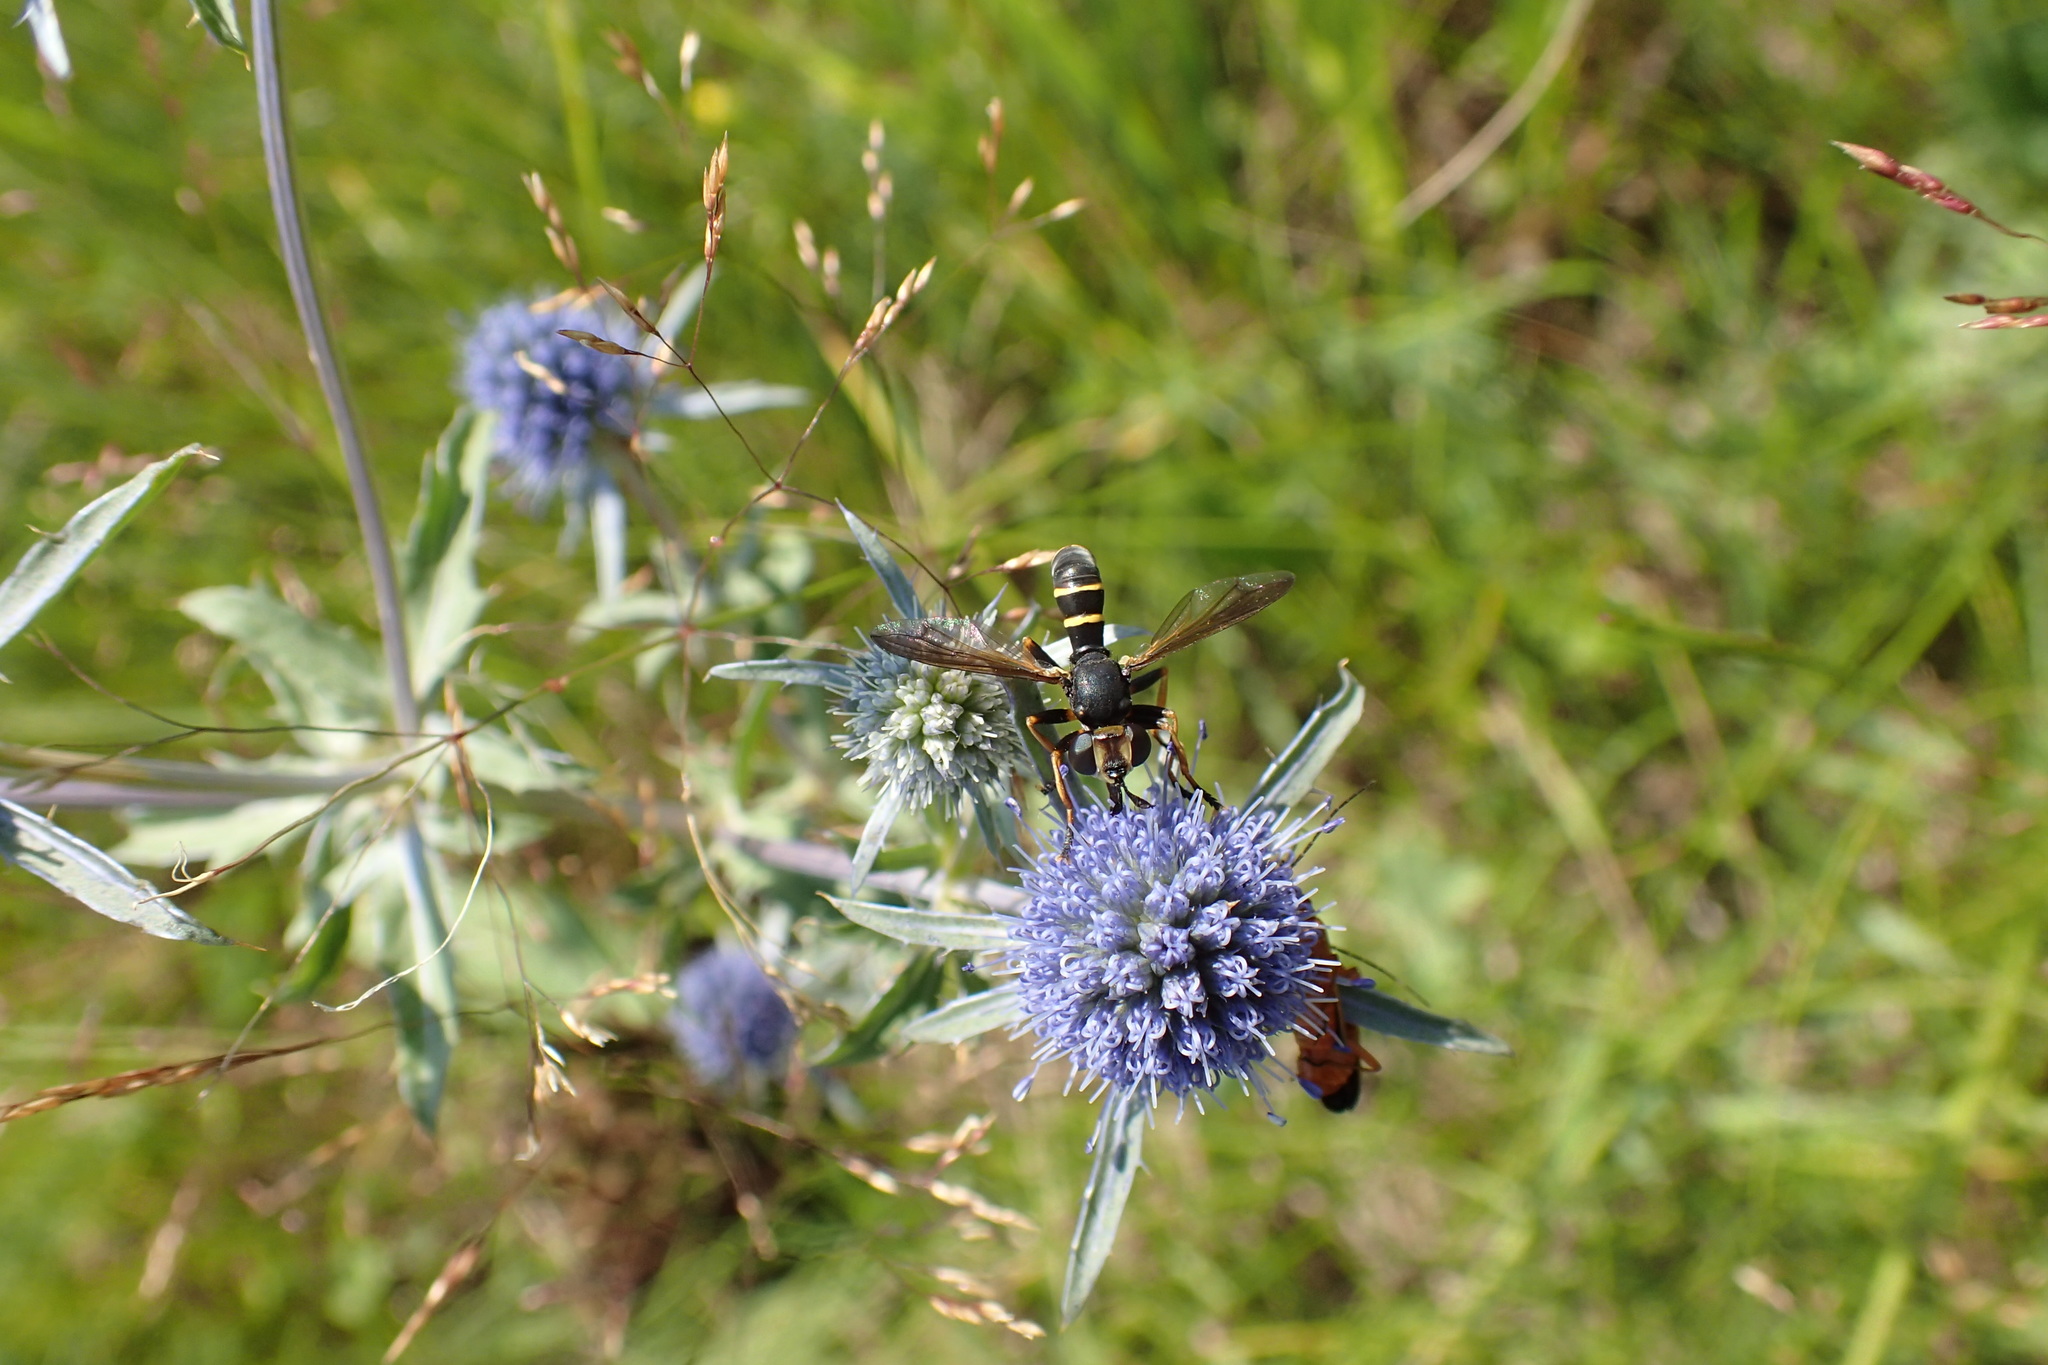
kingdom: Animalia
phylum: Arthropoda
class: Insecta
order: Diptera
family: Conopidae
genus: Conops
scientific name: Conops flavipes
